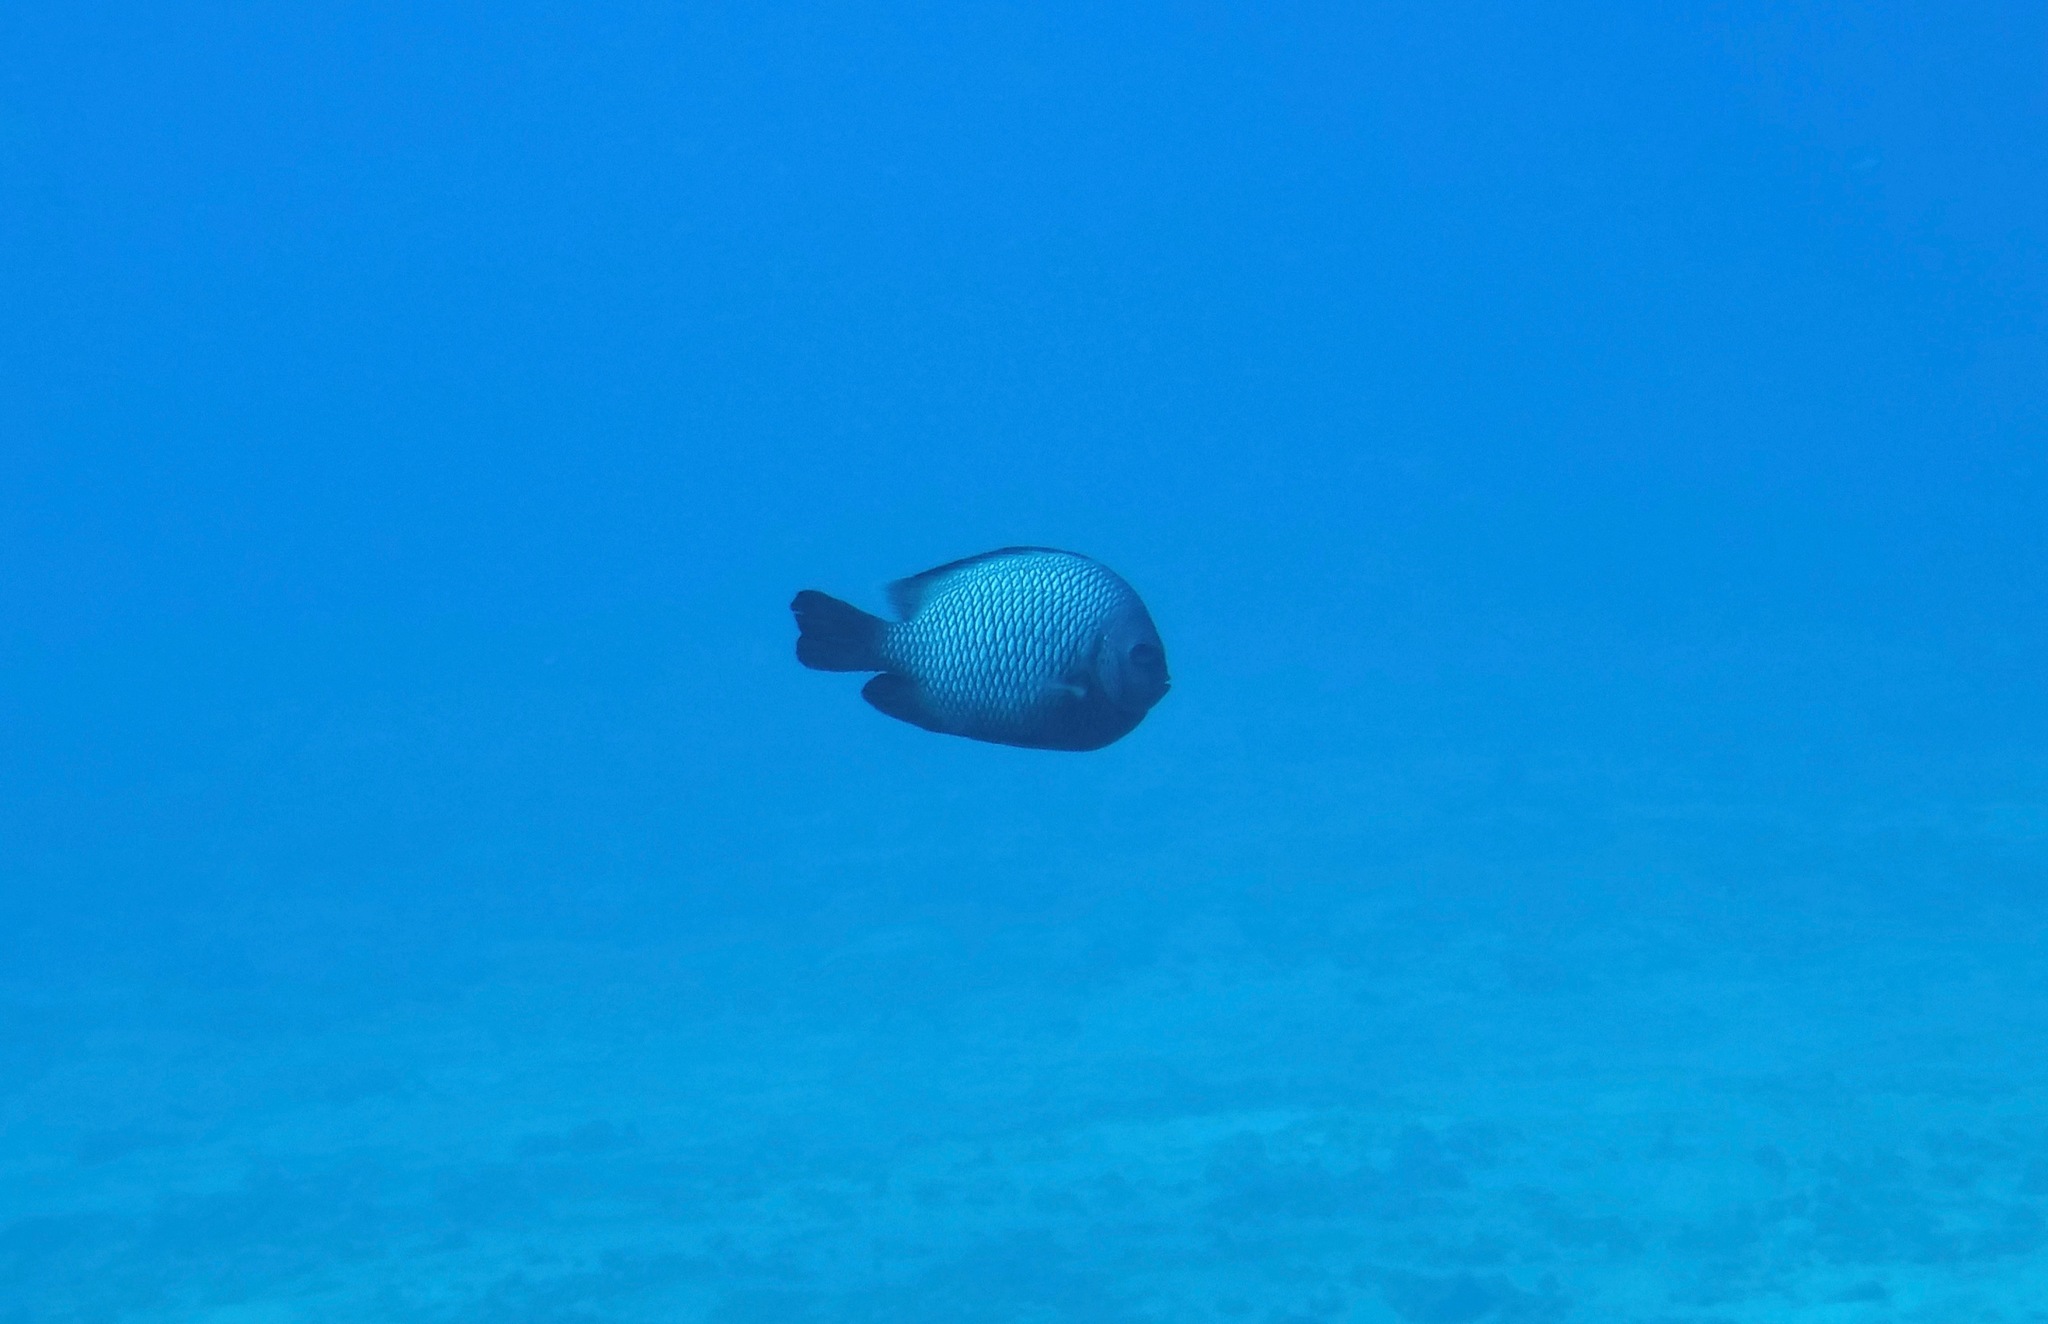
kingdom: Animalia
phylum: Chordata
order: Perciformes
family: Pomacentridae
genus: Dascyllus
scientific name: Dascyllus albisella
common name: Hawaiian dascyllus
